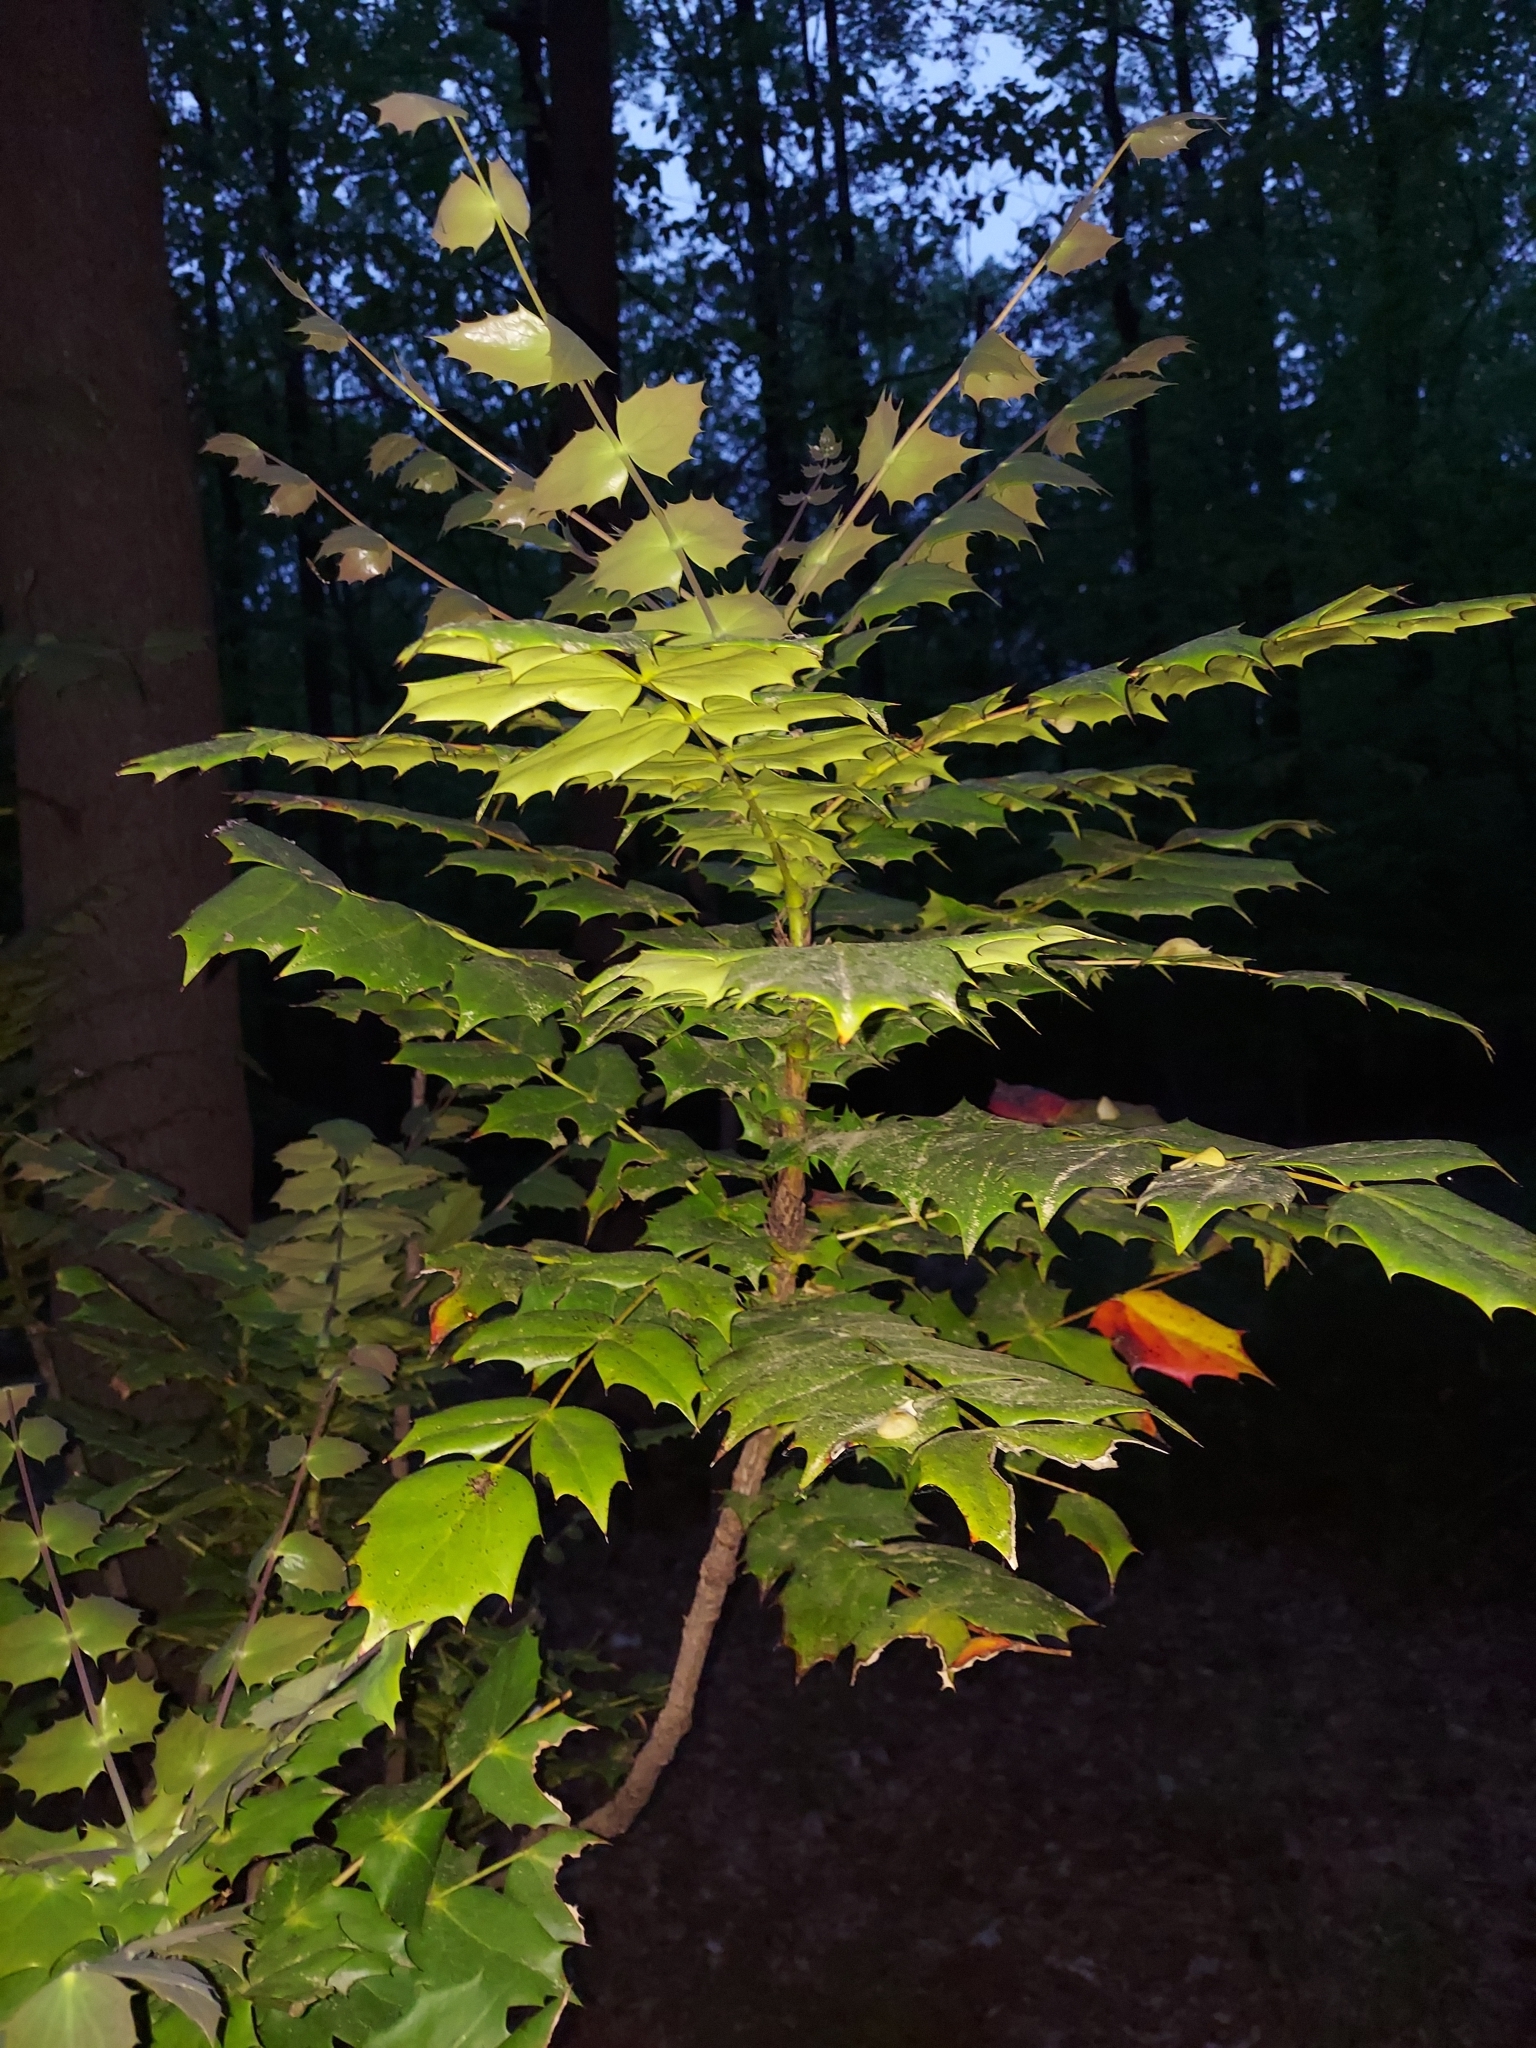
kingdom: Plantae
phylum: Tracheophyta
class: Magnoliopsida
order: Ranunculales
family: Berberidaceae
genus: Mahonia
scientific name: Mahonia bealei
